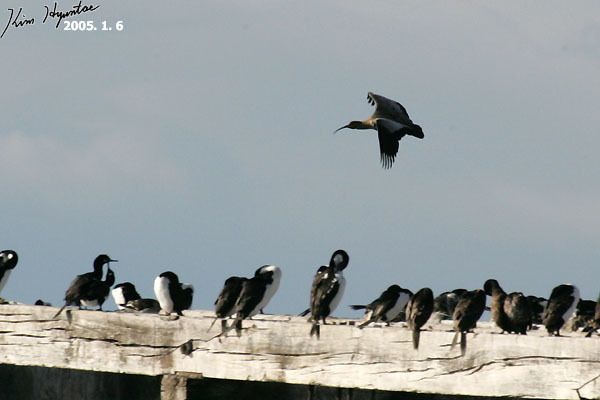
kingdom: Animalia
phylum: Chordata
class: Aves
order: Pelecaniformes
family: Threskiornithidae
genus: Theristicus
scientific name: Theristicus melanopis
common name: Black-faced ibis
